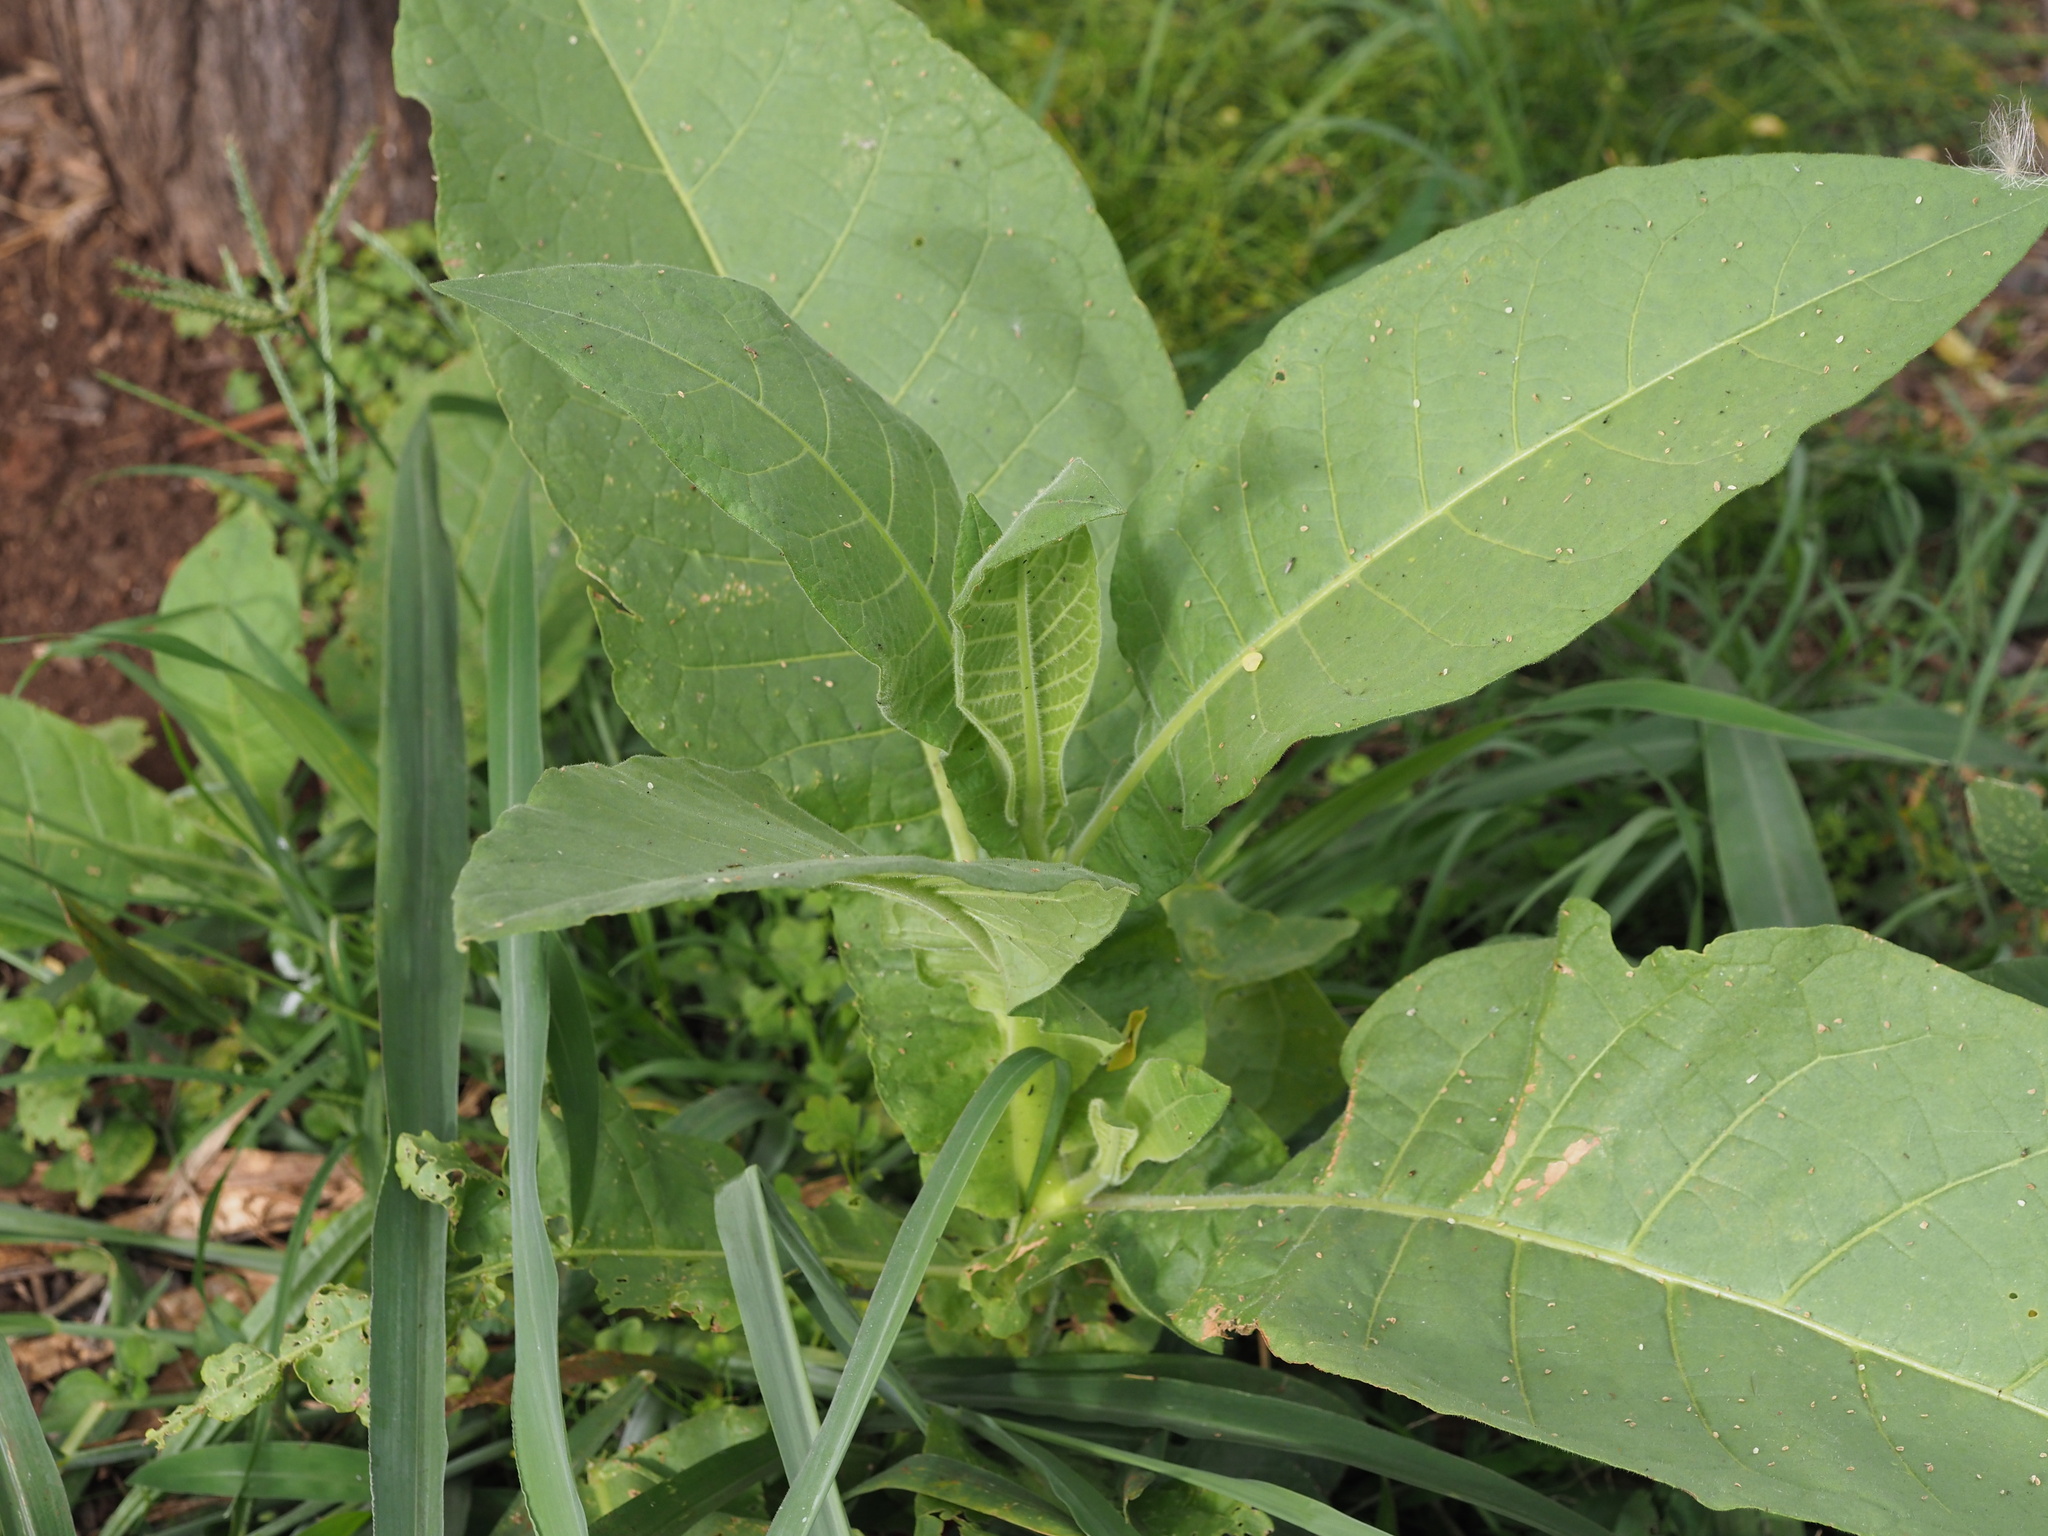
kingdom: Plantae
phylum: Tracheophyta
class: Magnoliopsida
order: Solanales
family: Solanaceae
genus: Nicotiana
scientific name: Nicotiana tabacum
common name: Tobacco
